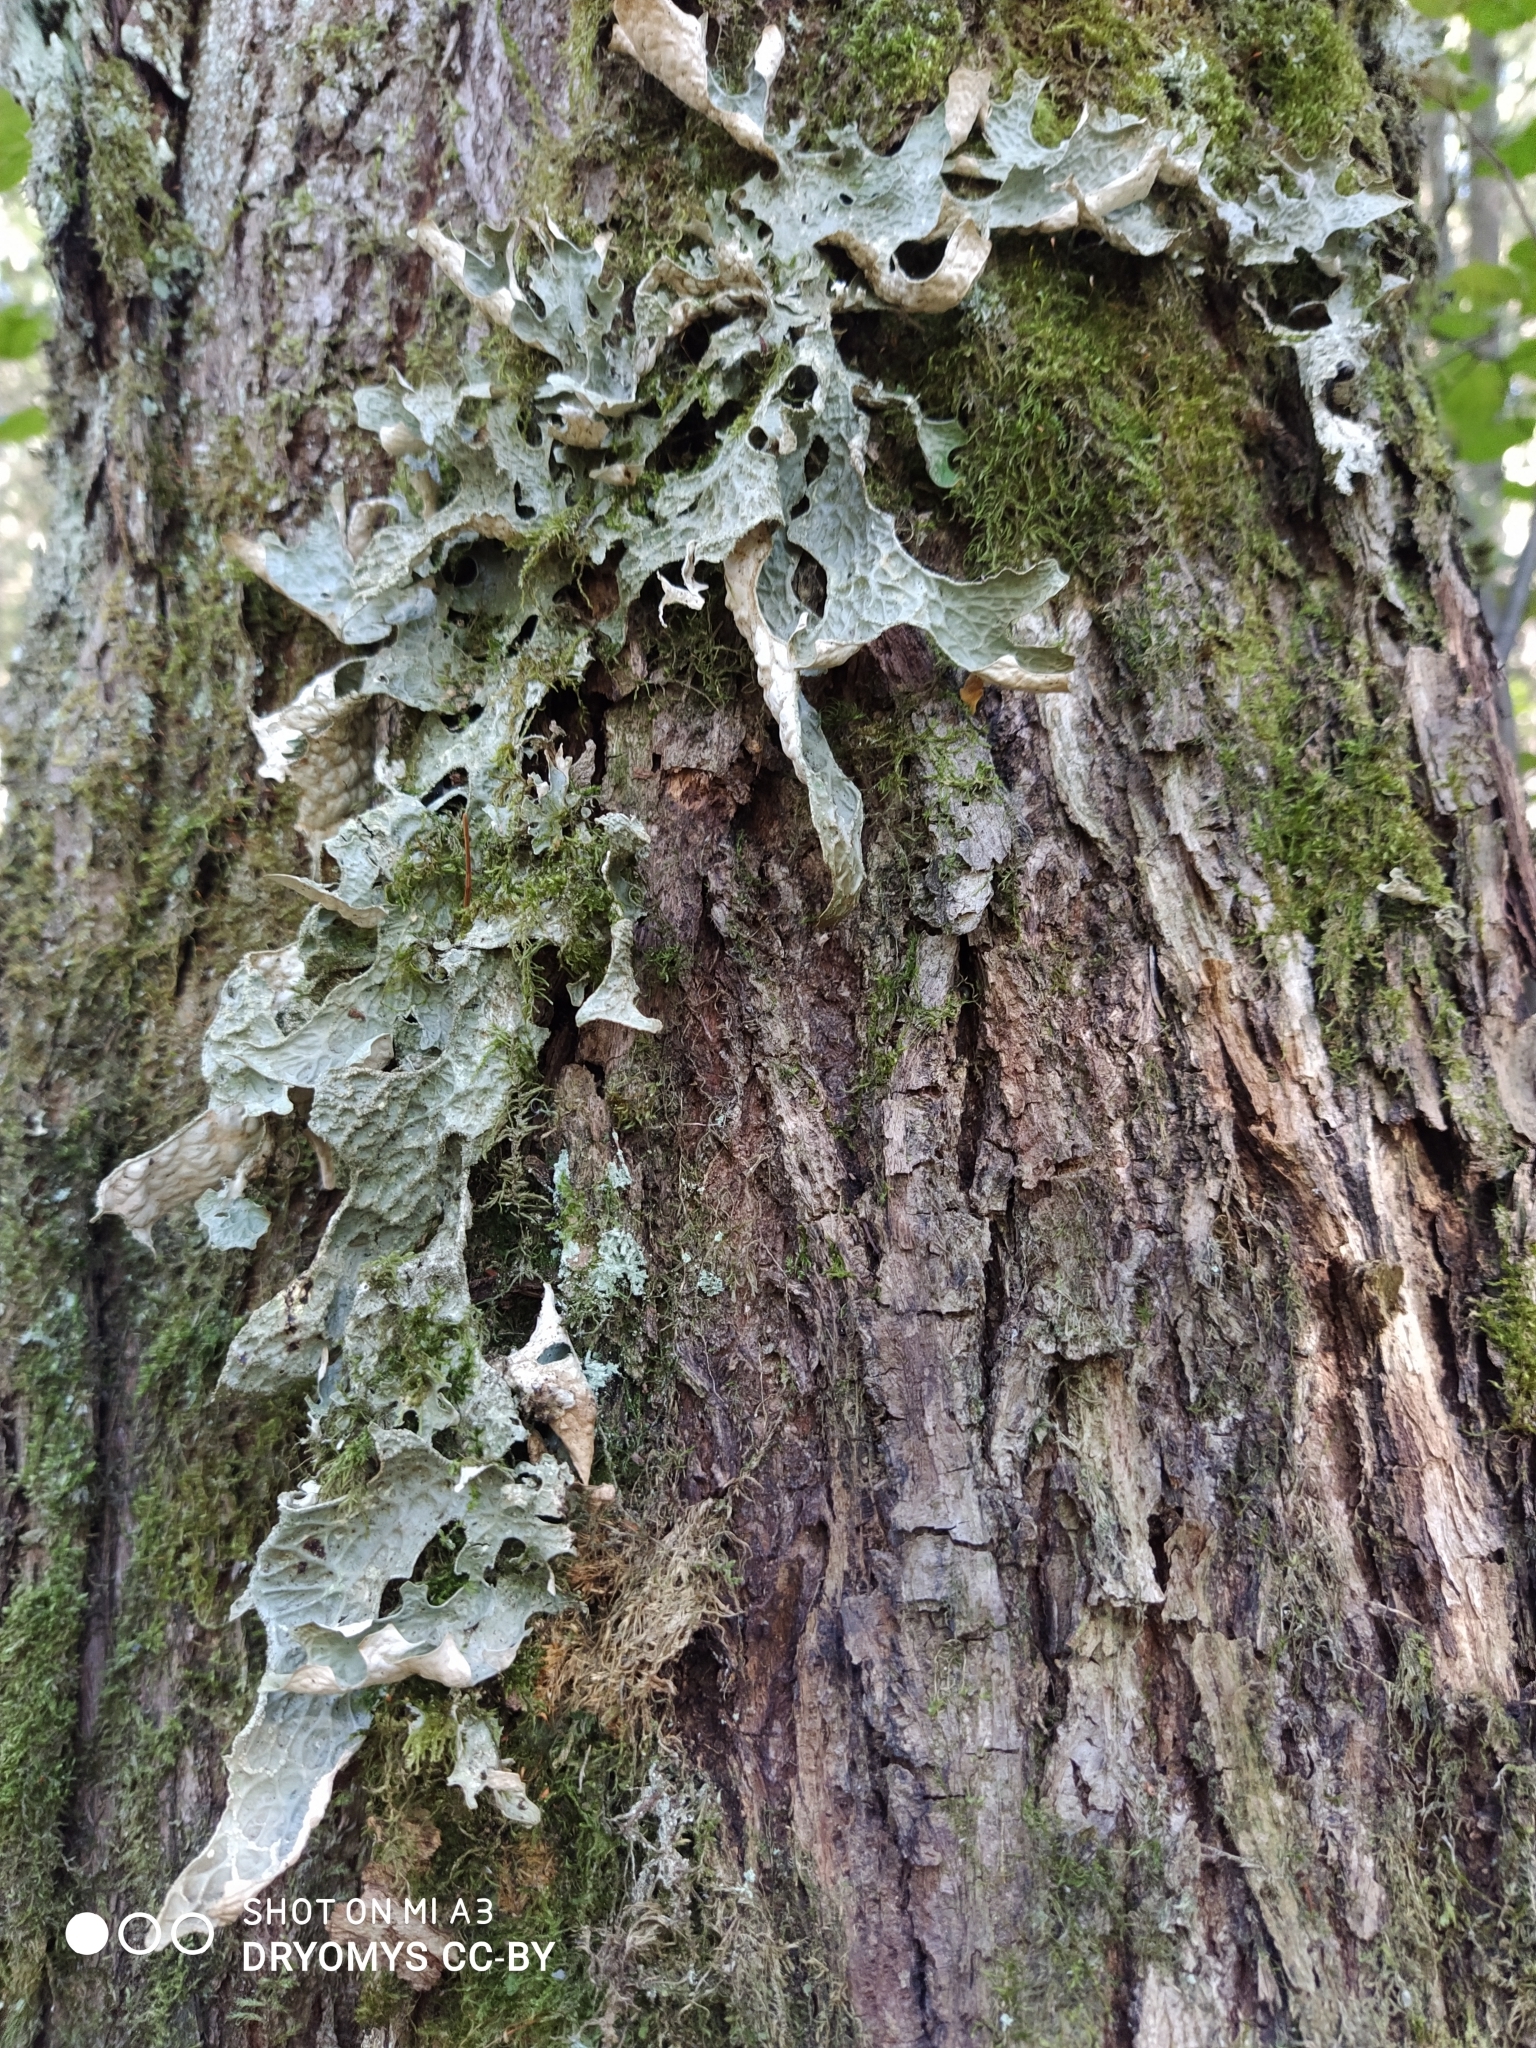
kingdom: Fungi
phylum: Ascomycota
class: Lecanoromycetes
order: Peltigerales
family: Lobariaceae
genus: Lobaria
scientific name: Lobaria pulmonaria
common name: Lungwort
